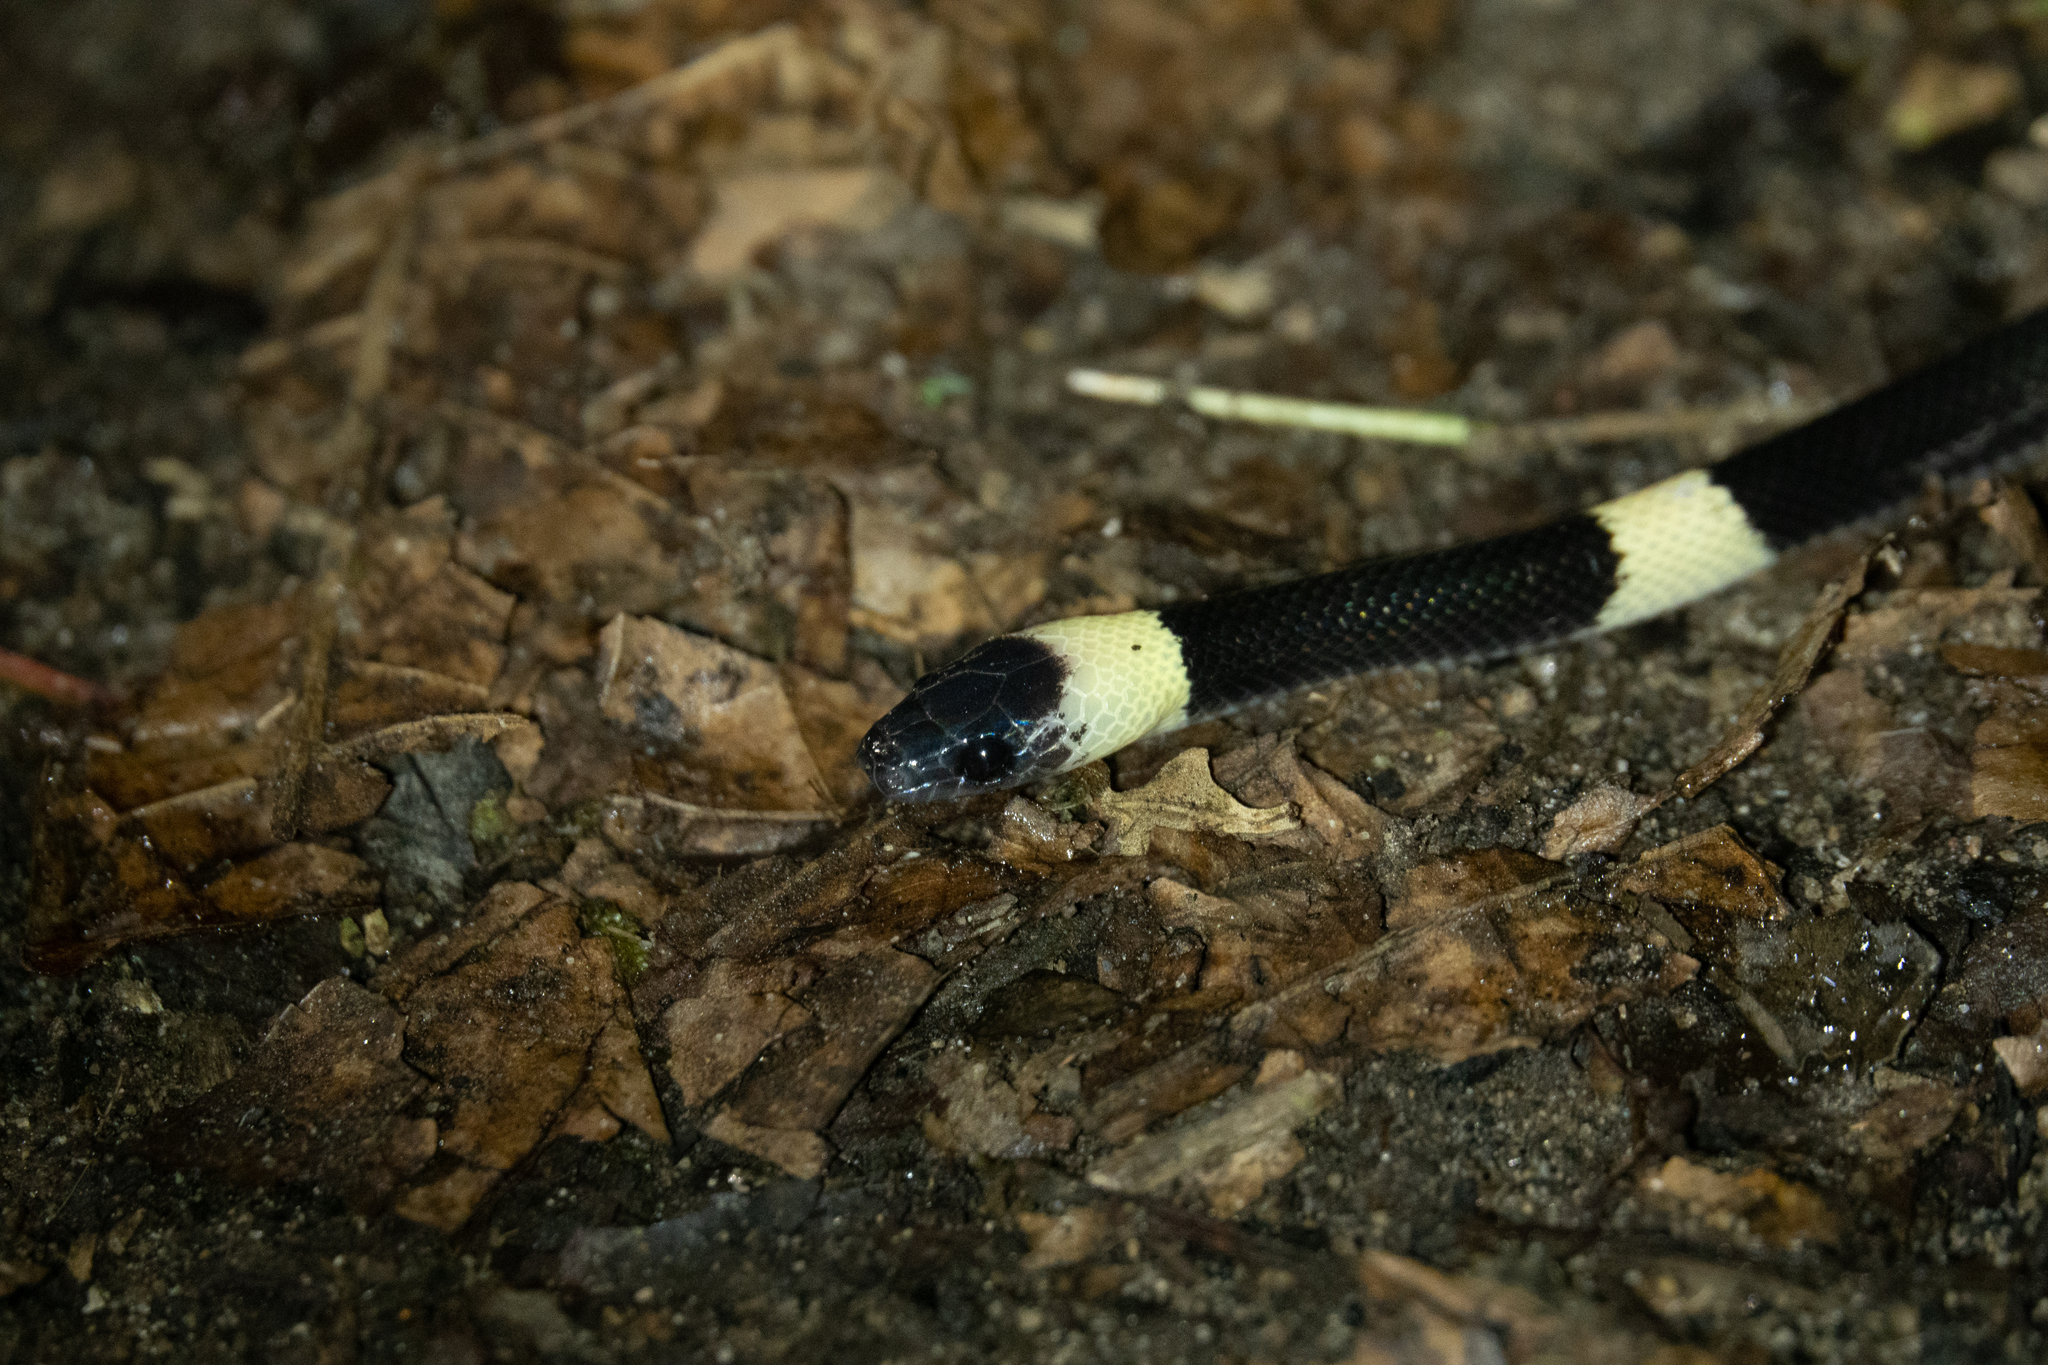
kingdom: Animalia
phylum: Chordata
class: Squamata
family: Colubridae
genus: Oxyrhopus
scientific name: Oxyrhopus petolarius
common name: Forest flame snake
